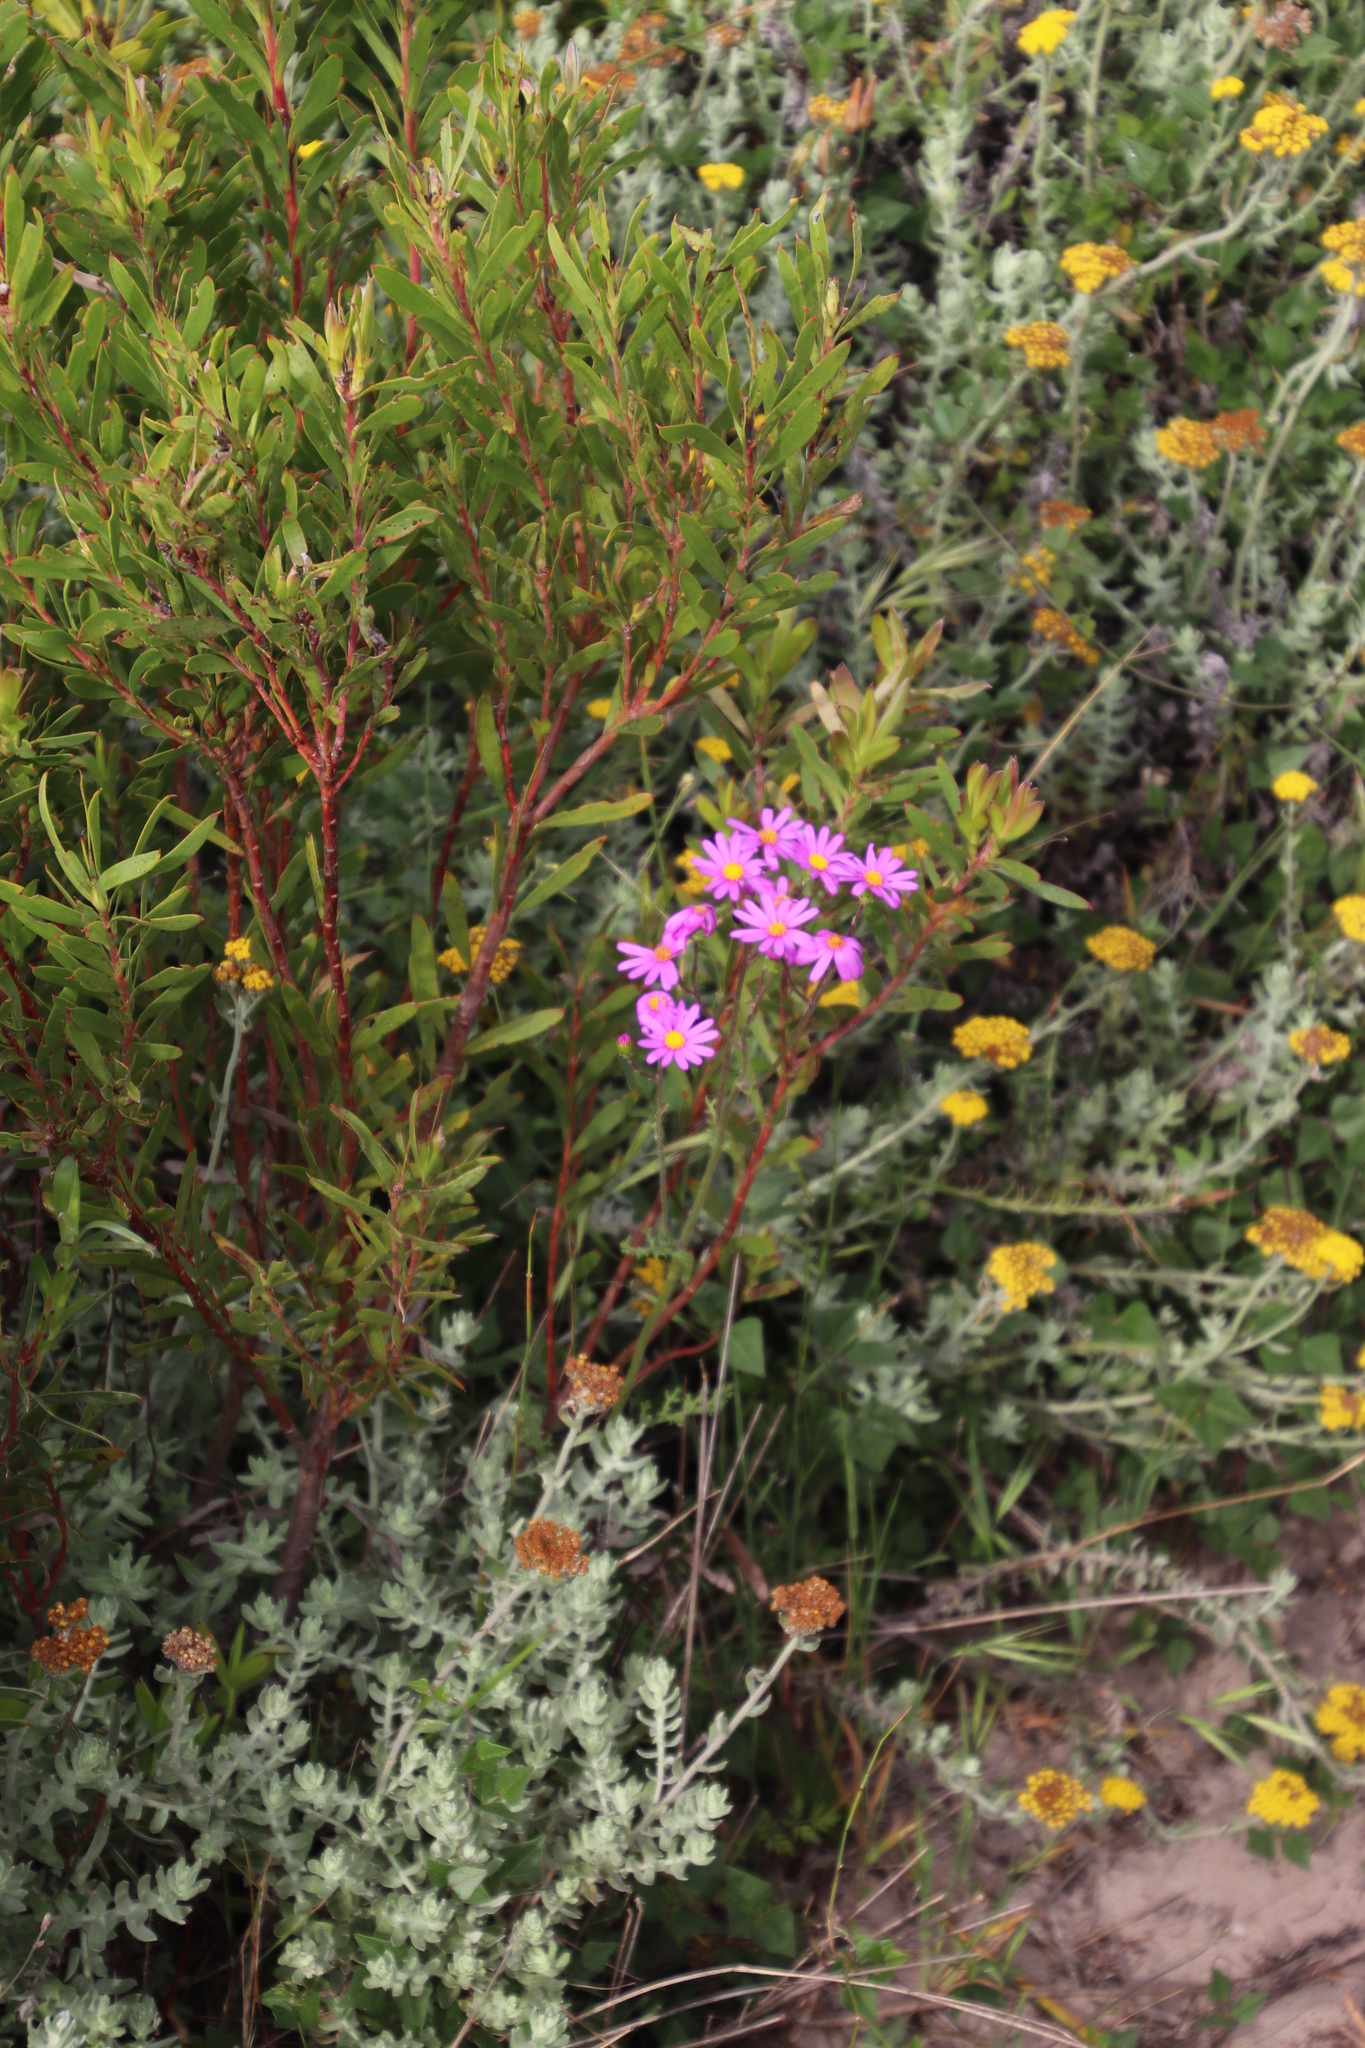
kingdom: Plantae
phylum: Tracheophyta
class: Magnoliopsida
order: Asterales
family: Asteraceae
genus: Senecio
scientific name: Senecio elegans
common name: Purple groundsel
